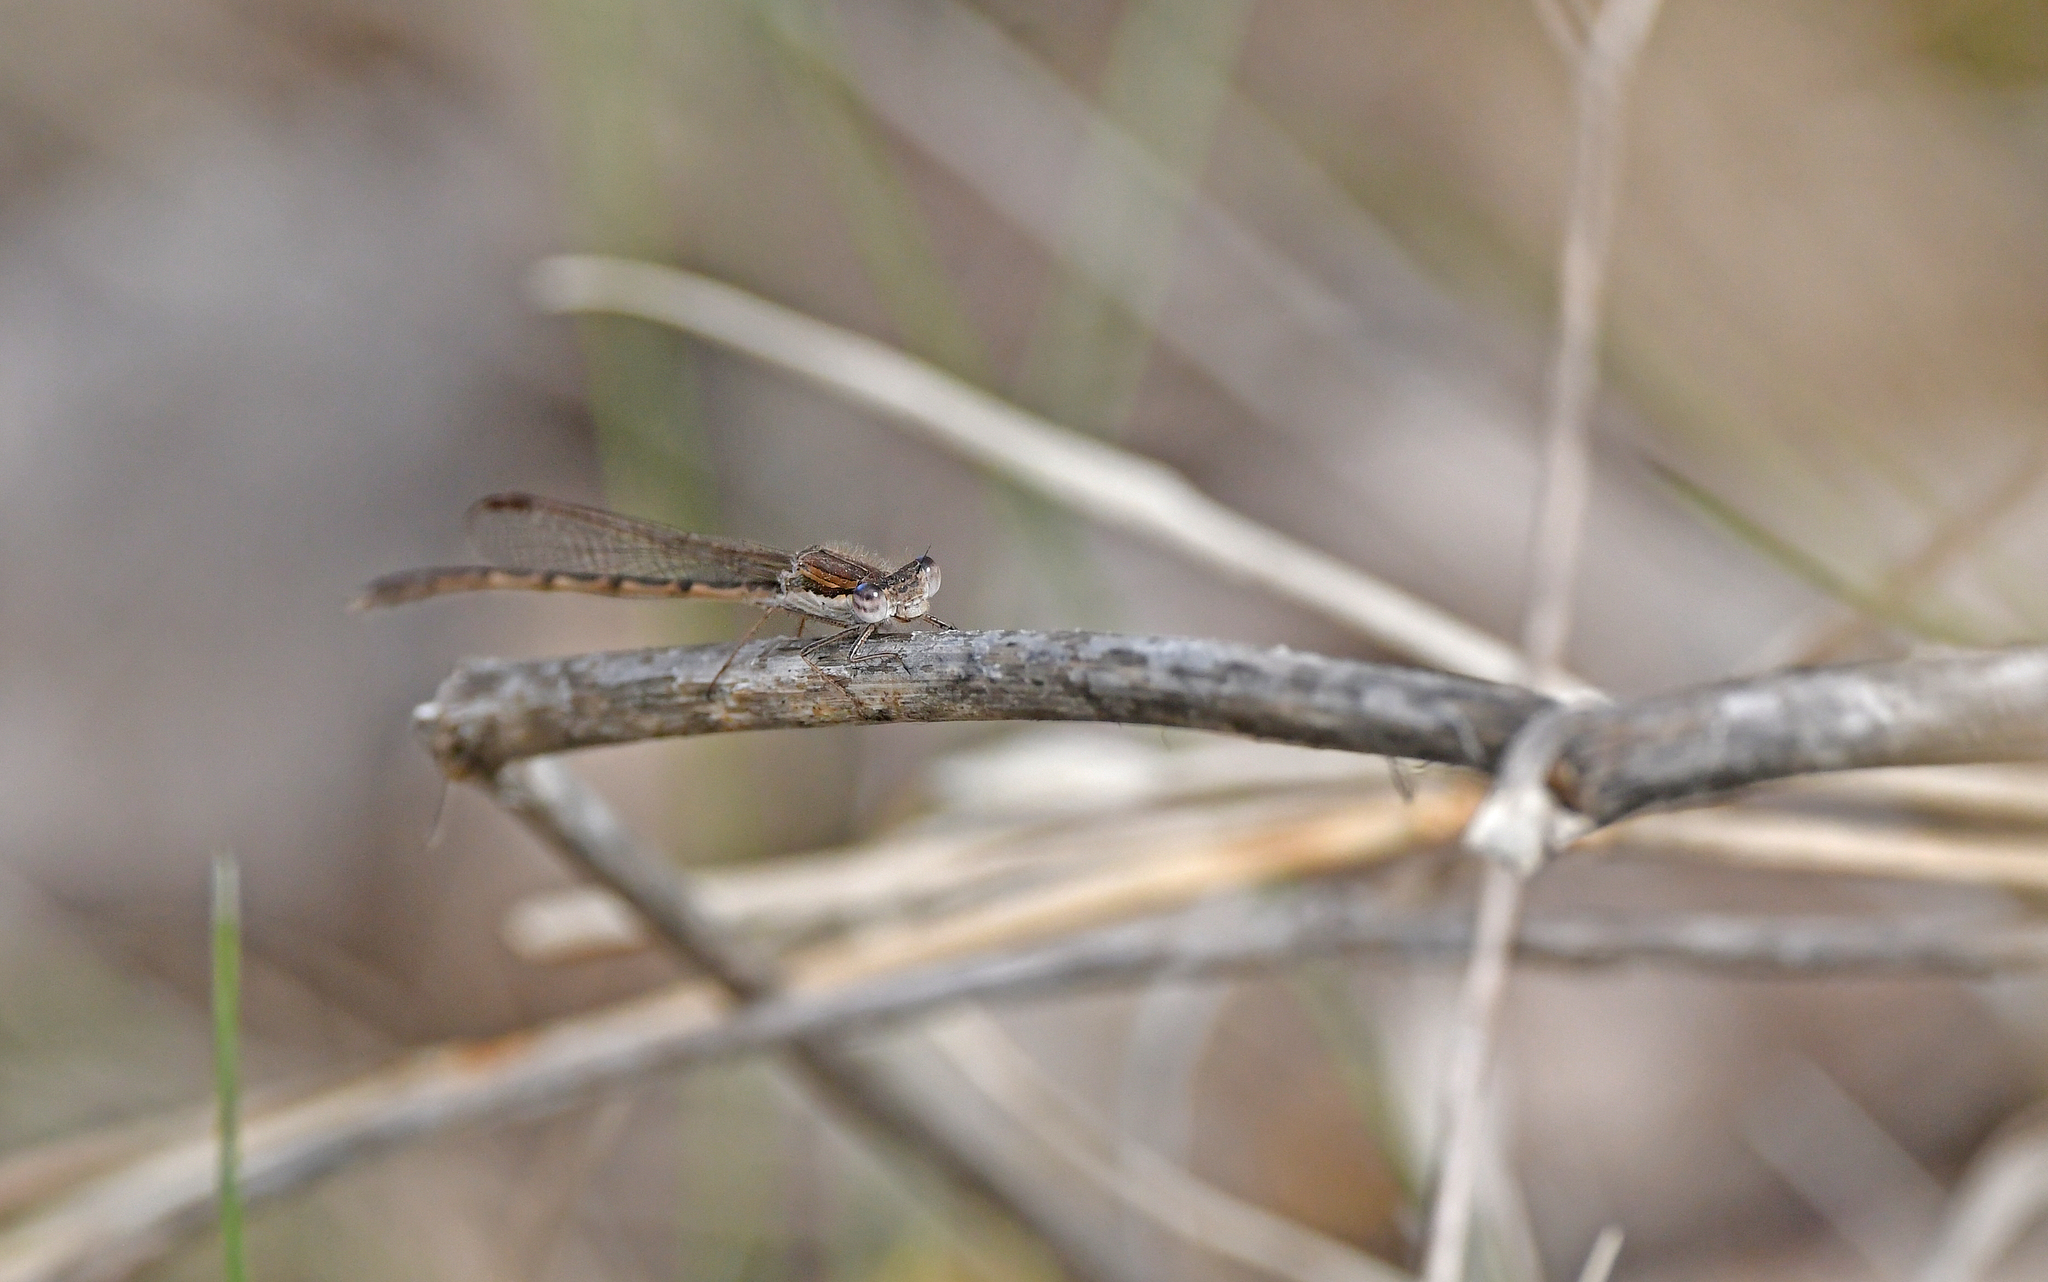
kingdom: Animalia
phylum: Arthropoda
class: Insecta
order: Odonata
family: Lestidae
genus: Sympecma
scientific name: Sympecma fusca
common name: Common winter damsel
